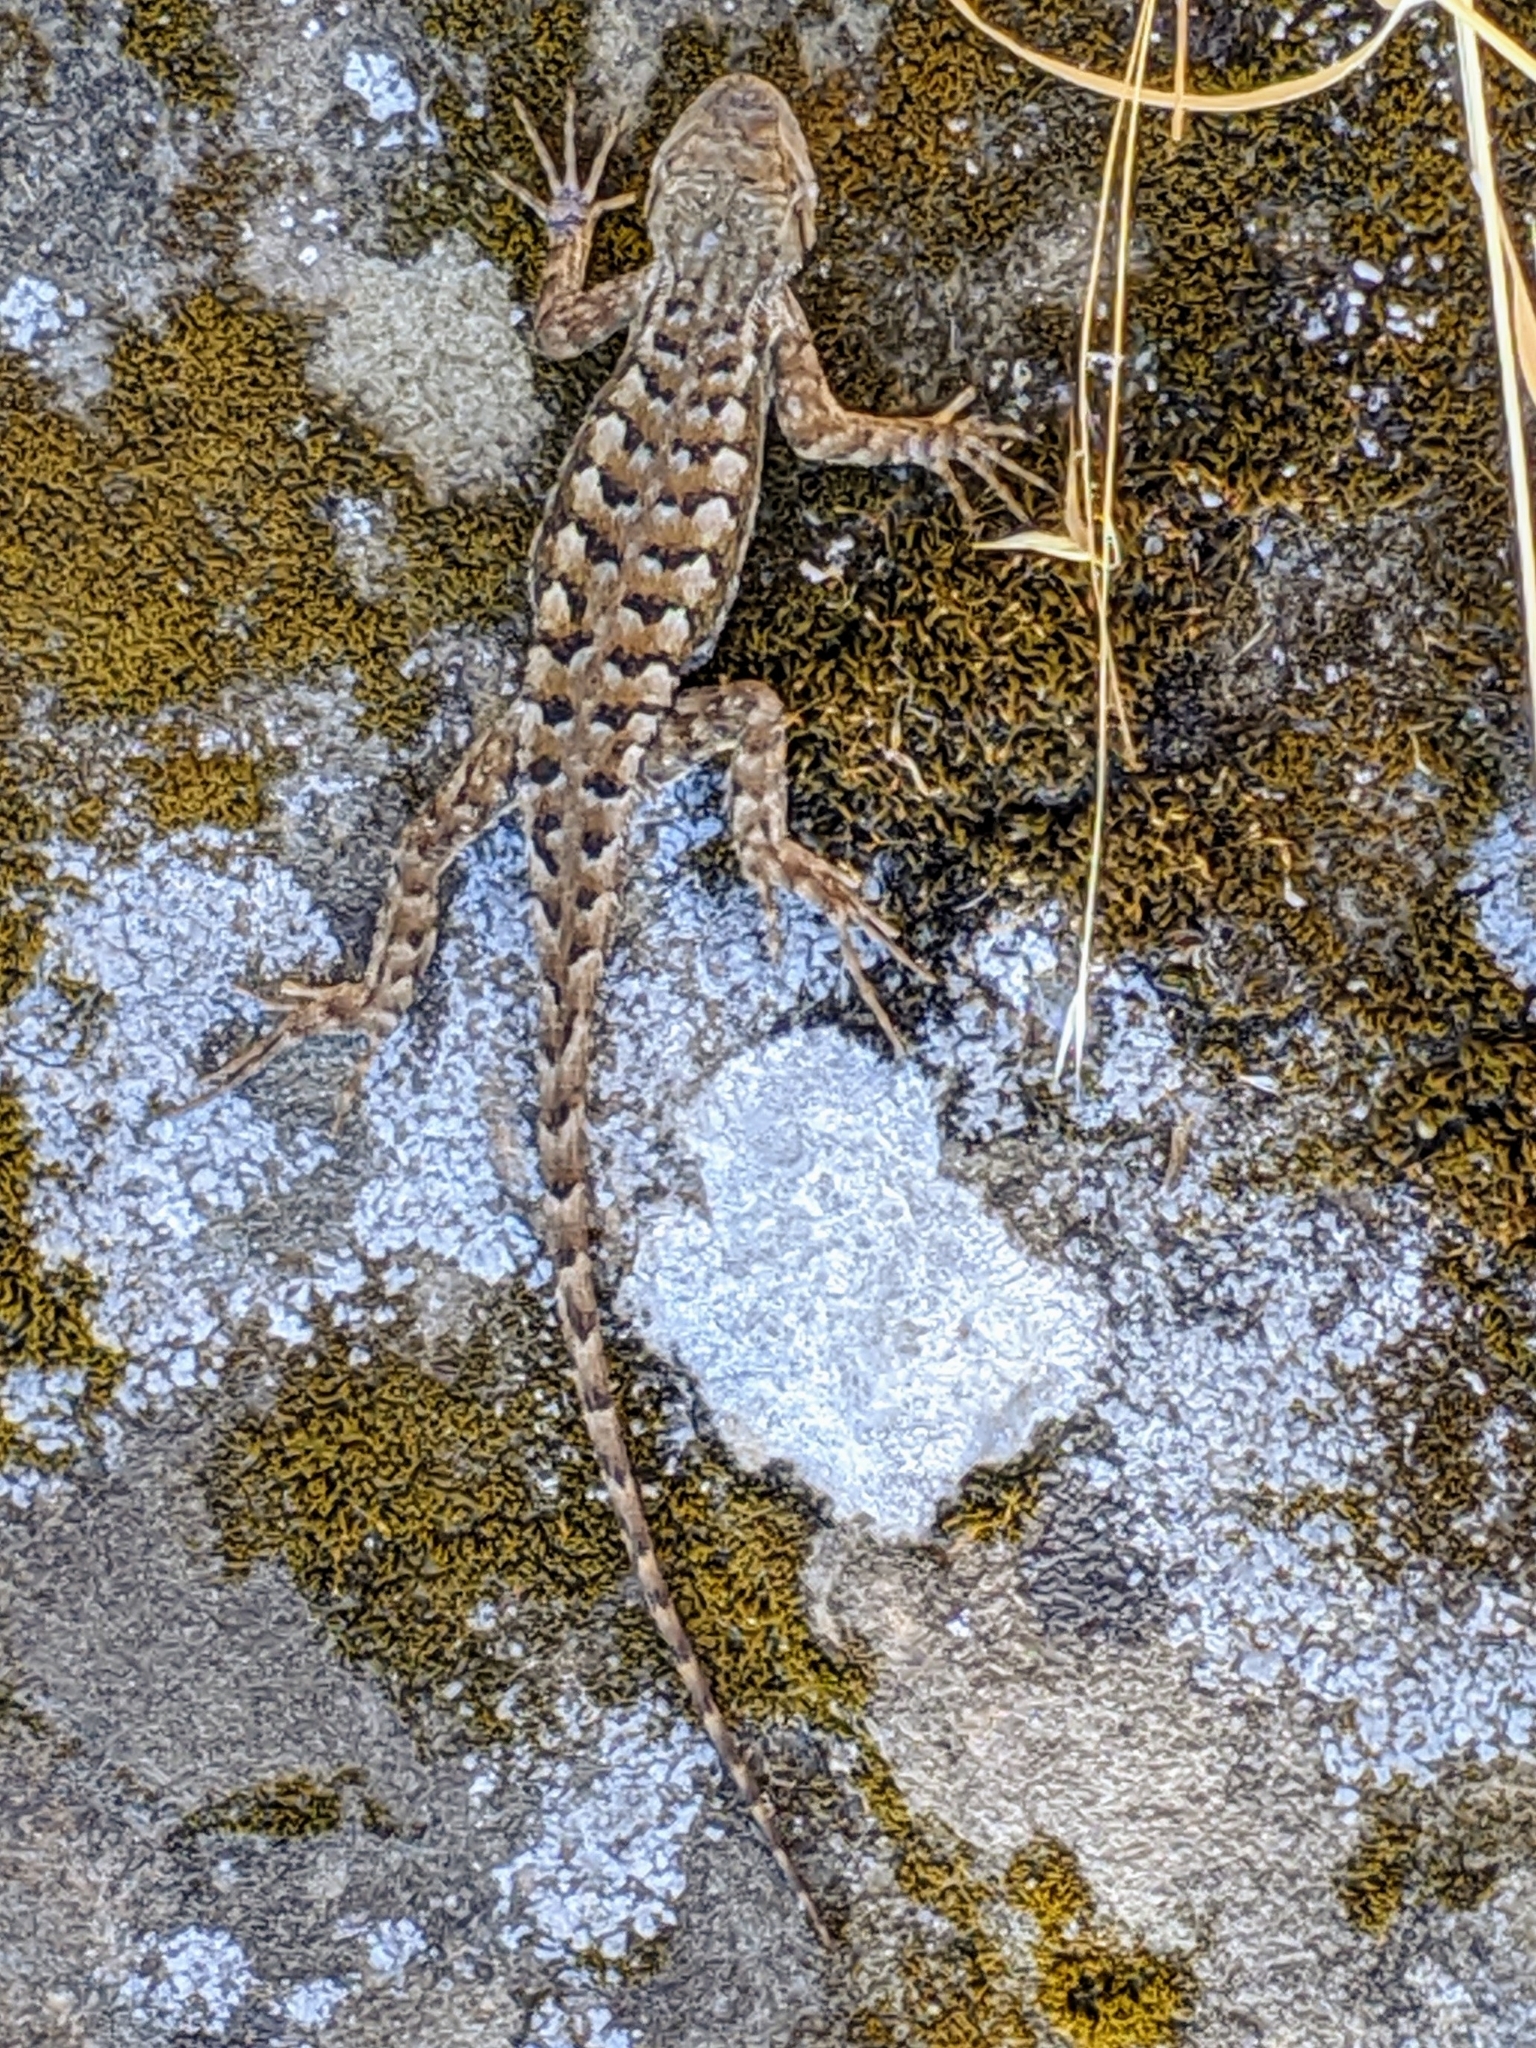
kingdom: Animalia
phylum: Chordata
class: Squamata
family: Phrynosomatidae
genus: Sceloporus
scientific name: Sceloporus occidentalis
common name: Western fence lizard
